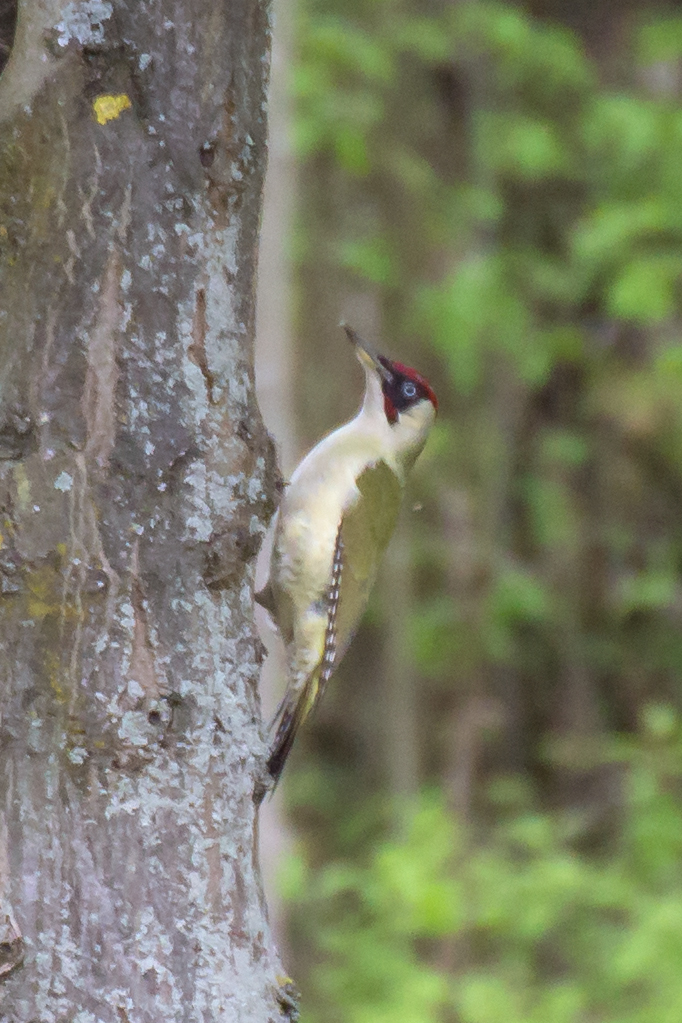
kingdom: Animalia
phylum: Chordata
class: Aves
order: Piciformes
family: Picidae
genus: Picus
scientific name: Picus viridis
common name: European green woodpecker
